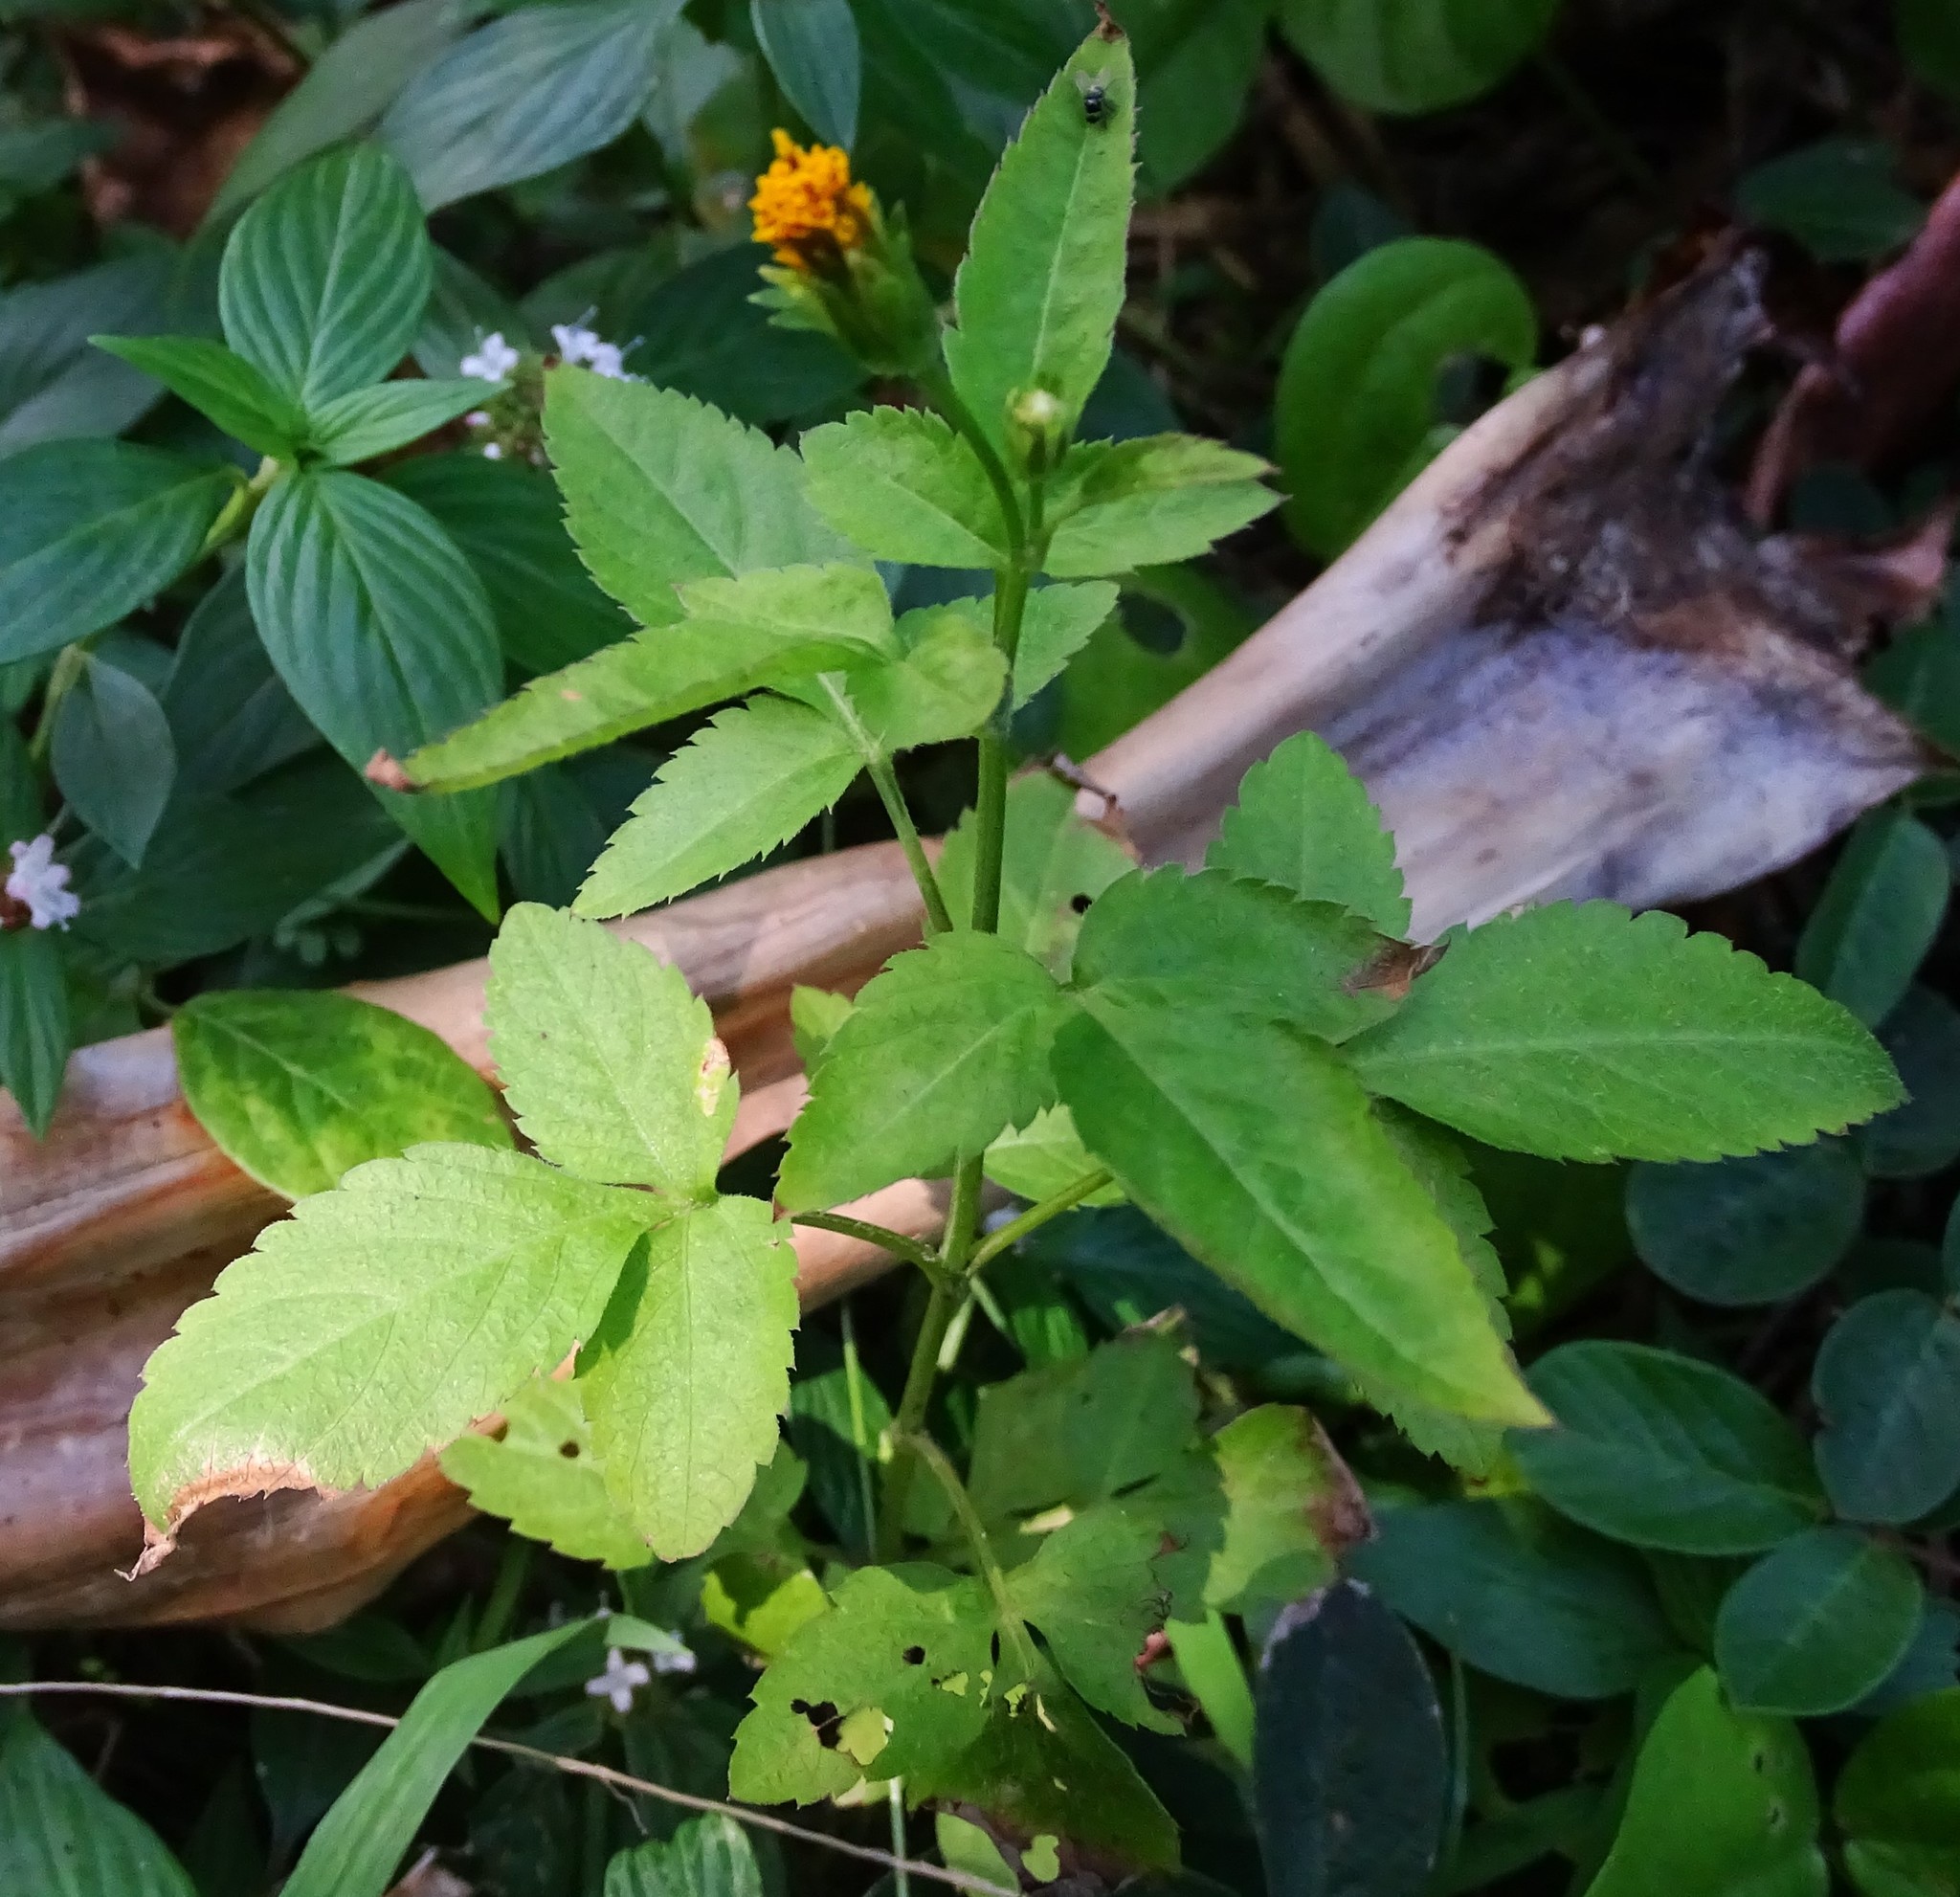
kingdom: Plantae
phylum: Tracheophyta
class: Magnoliopsida
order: Asterales
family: Asteraceae
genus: Bidens
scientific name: Bidens alba
